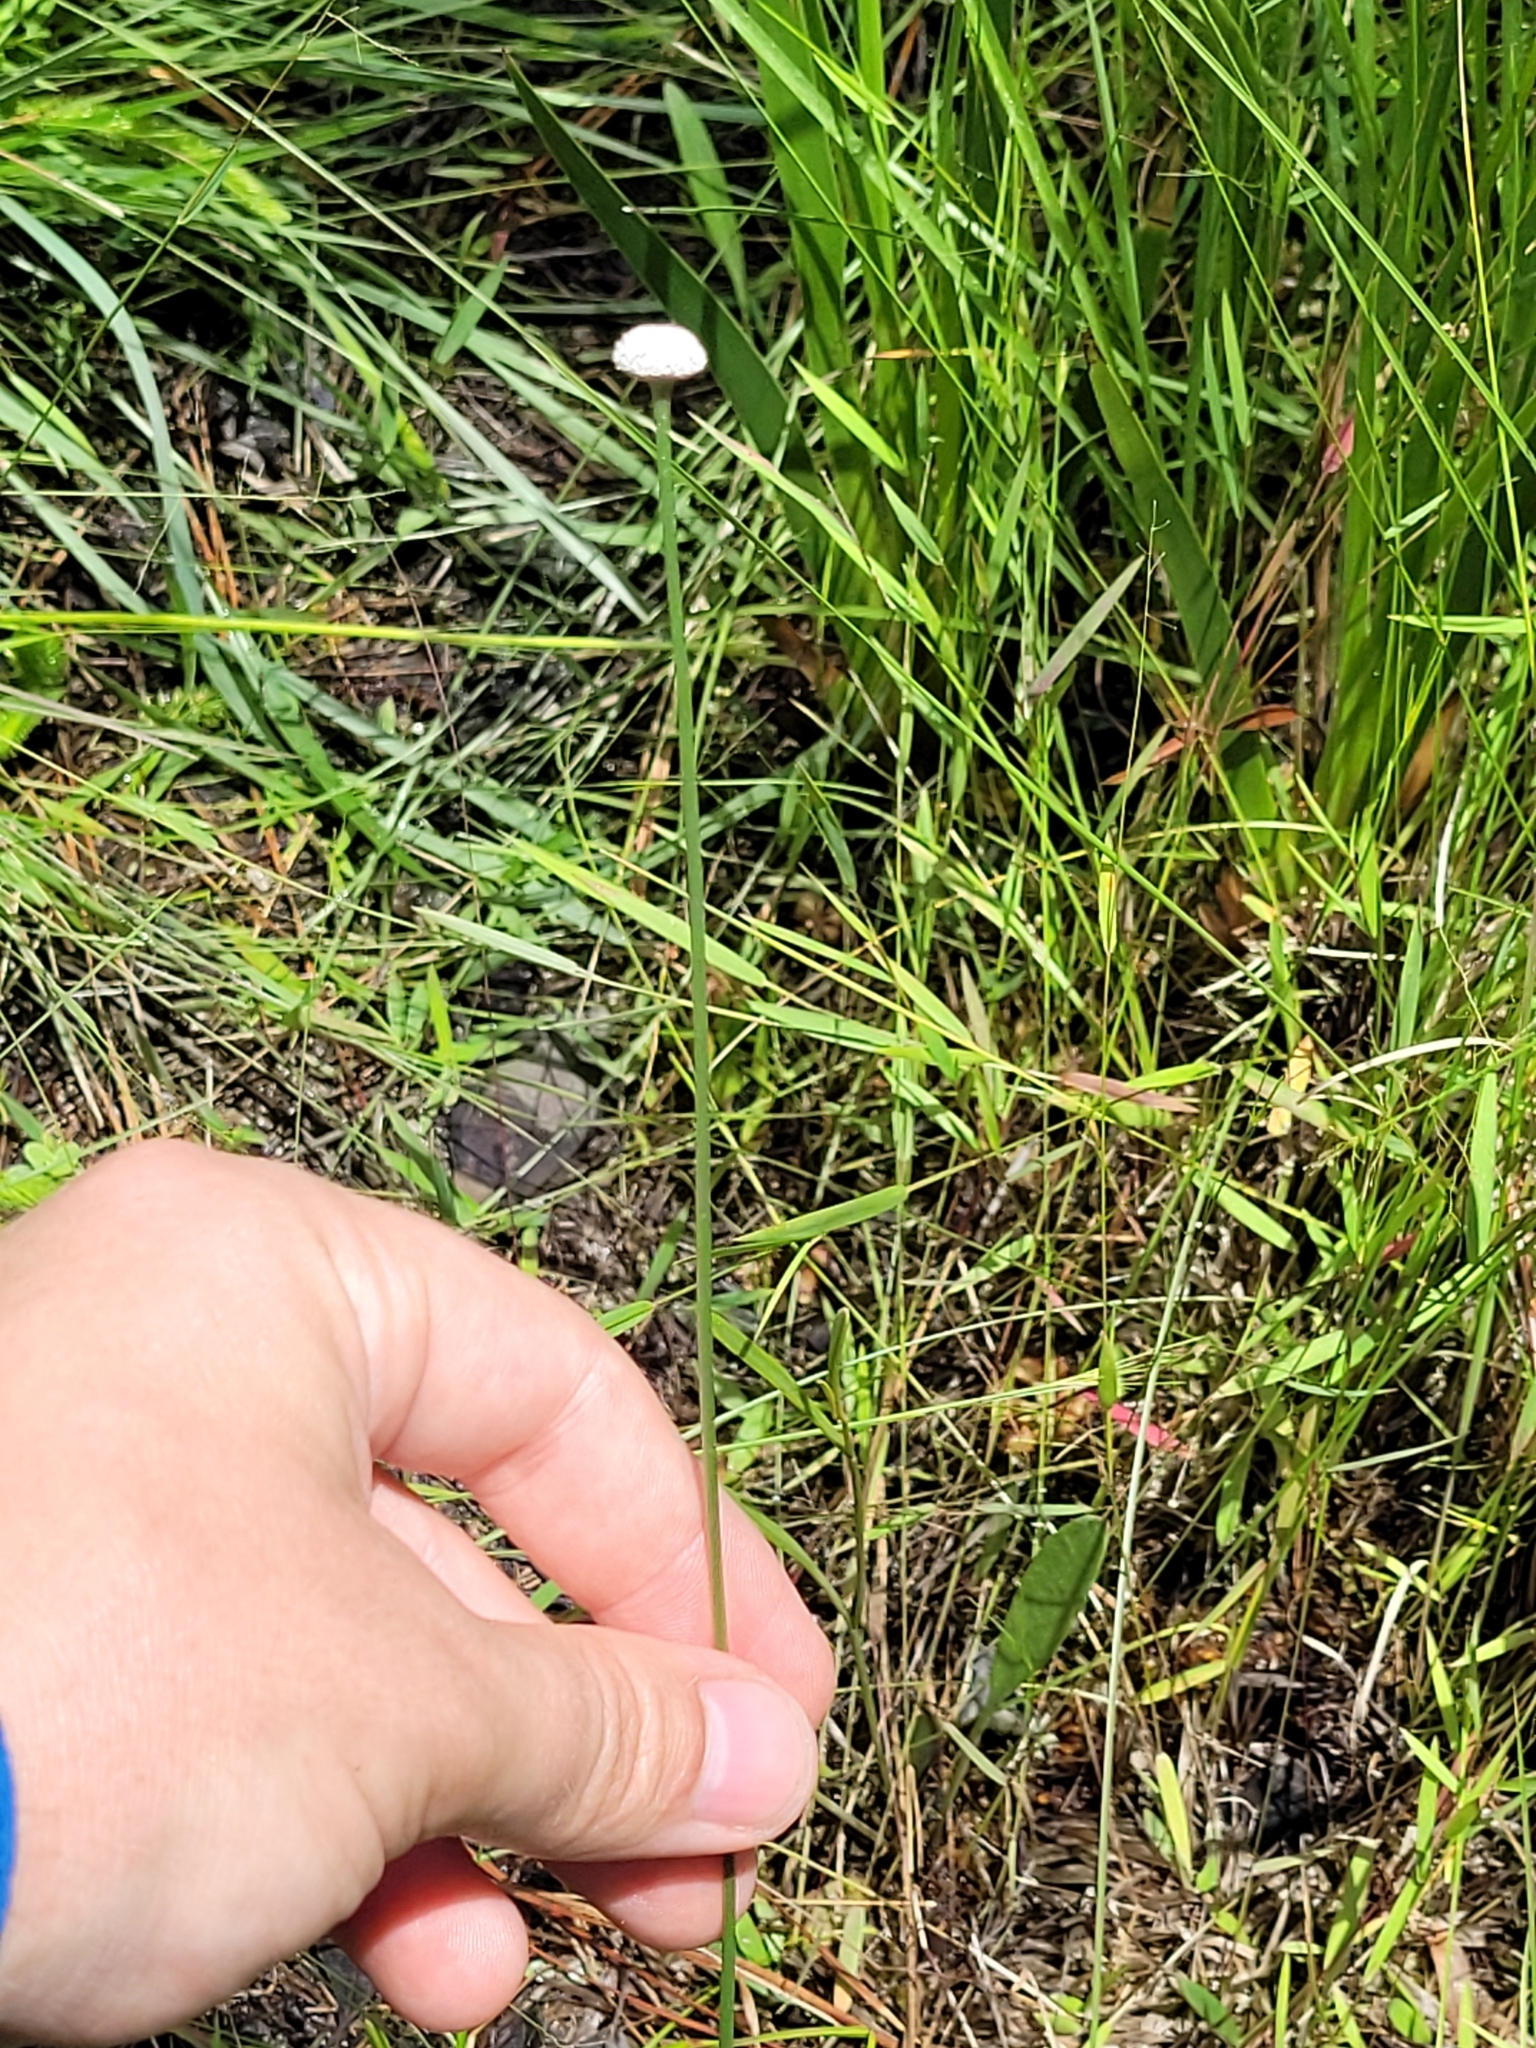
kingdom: Plantae
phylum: Tracheophyta
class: Liliopsida
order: Poales
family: Eriocaulaceae
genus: Eriocaulon
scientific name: Eriocaulon decangulare
